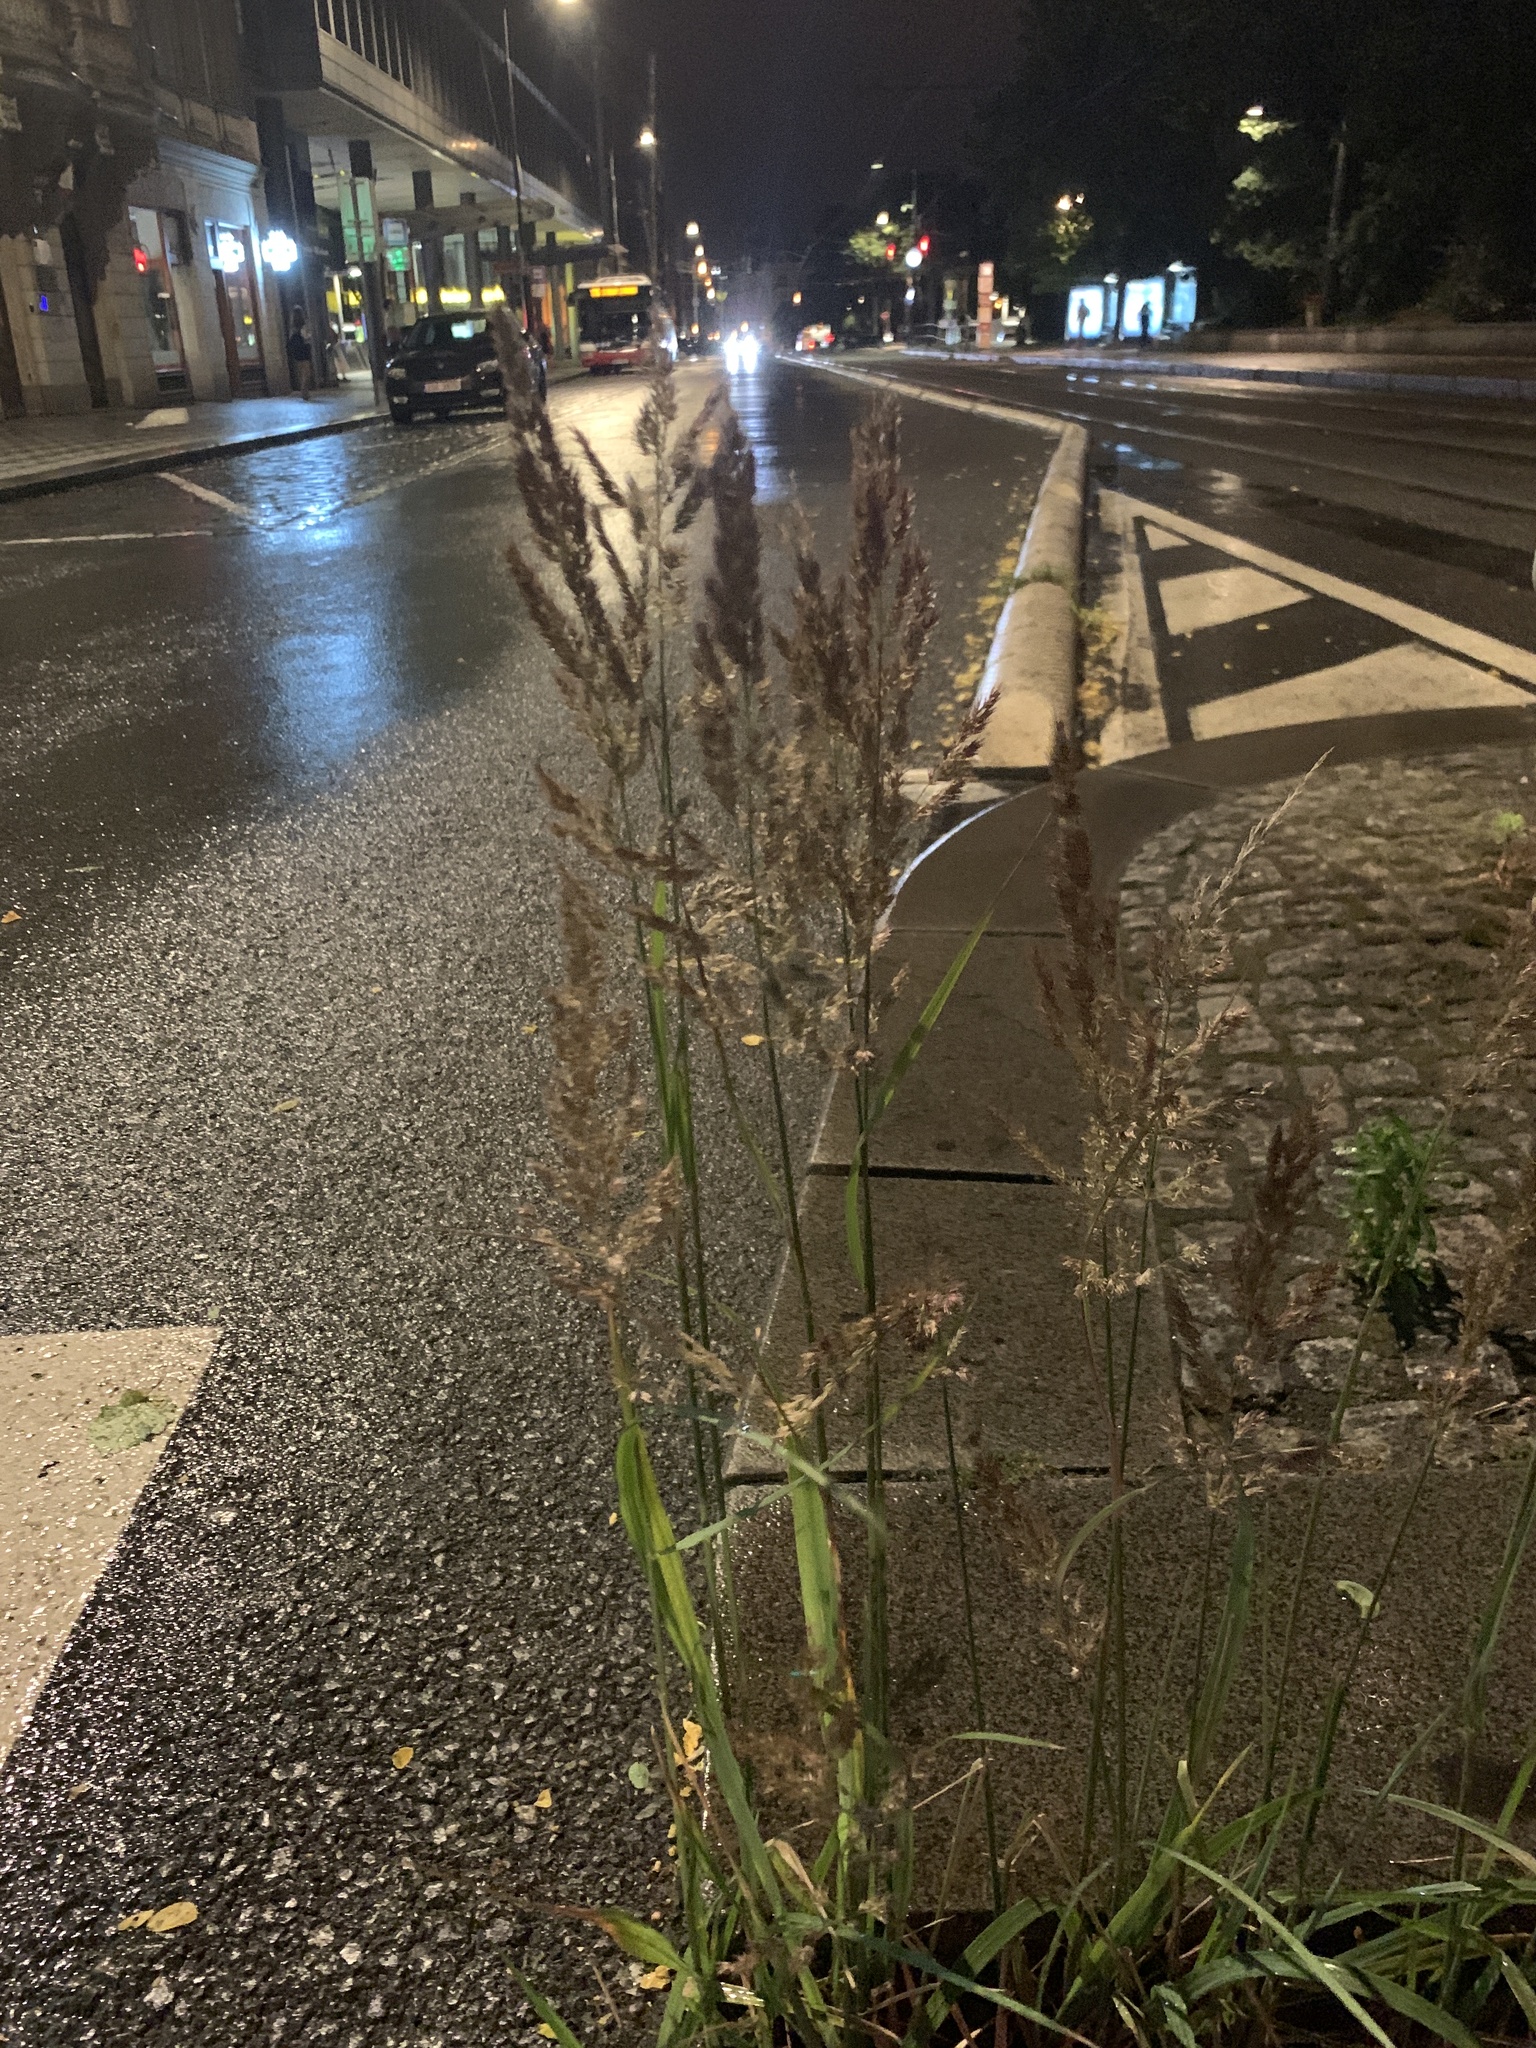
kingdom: Plantae
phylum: Tracheophyta
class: Liliopsida
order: Poales
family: Poaceae
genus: Calamagrostis
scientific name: Calamagrostis epigejos
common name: Wood small-reed
